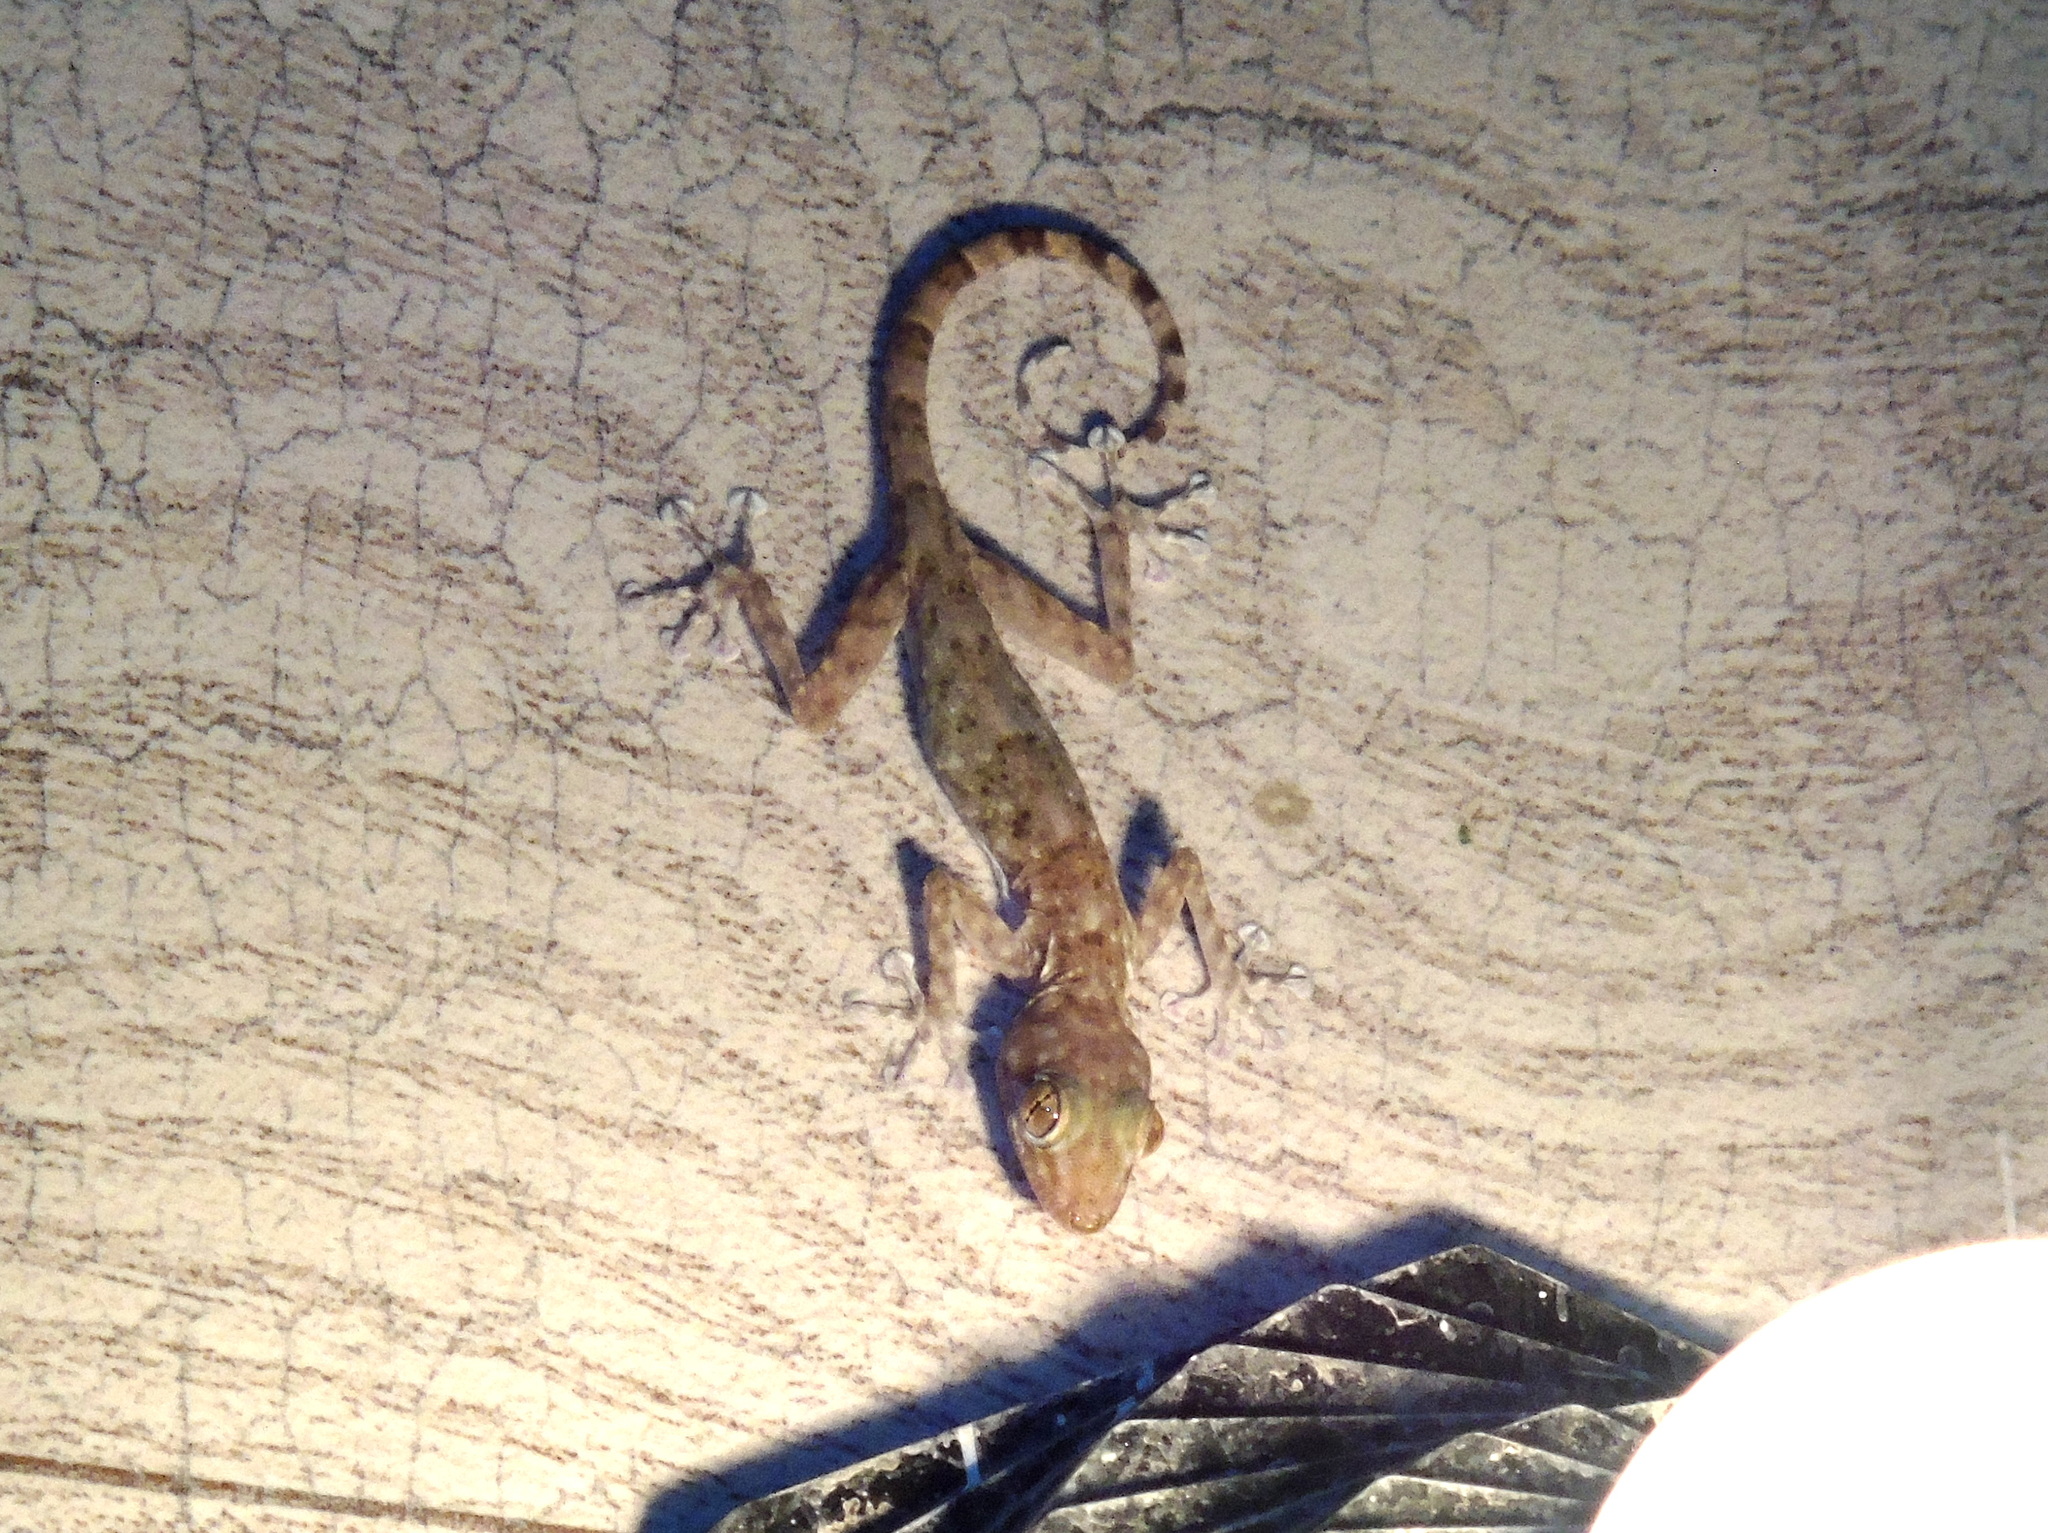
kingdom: Animalia
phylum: Chordata
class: Squamata
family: Phyllodactylidae
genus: Ptyodactylus
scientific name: Ptyodactylus hasselquistii
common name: Hasselquist’s fan-footed gecko
